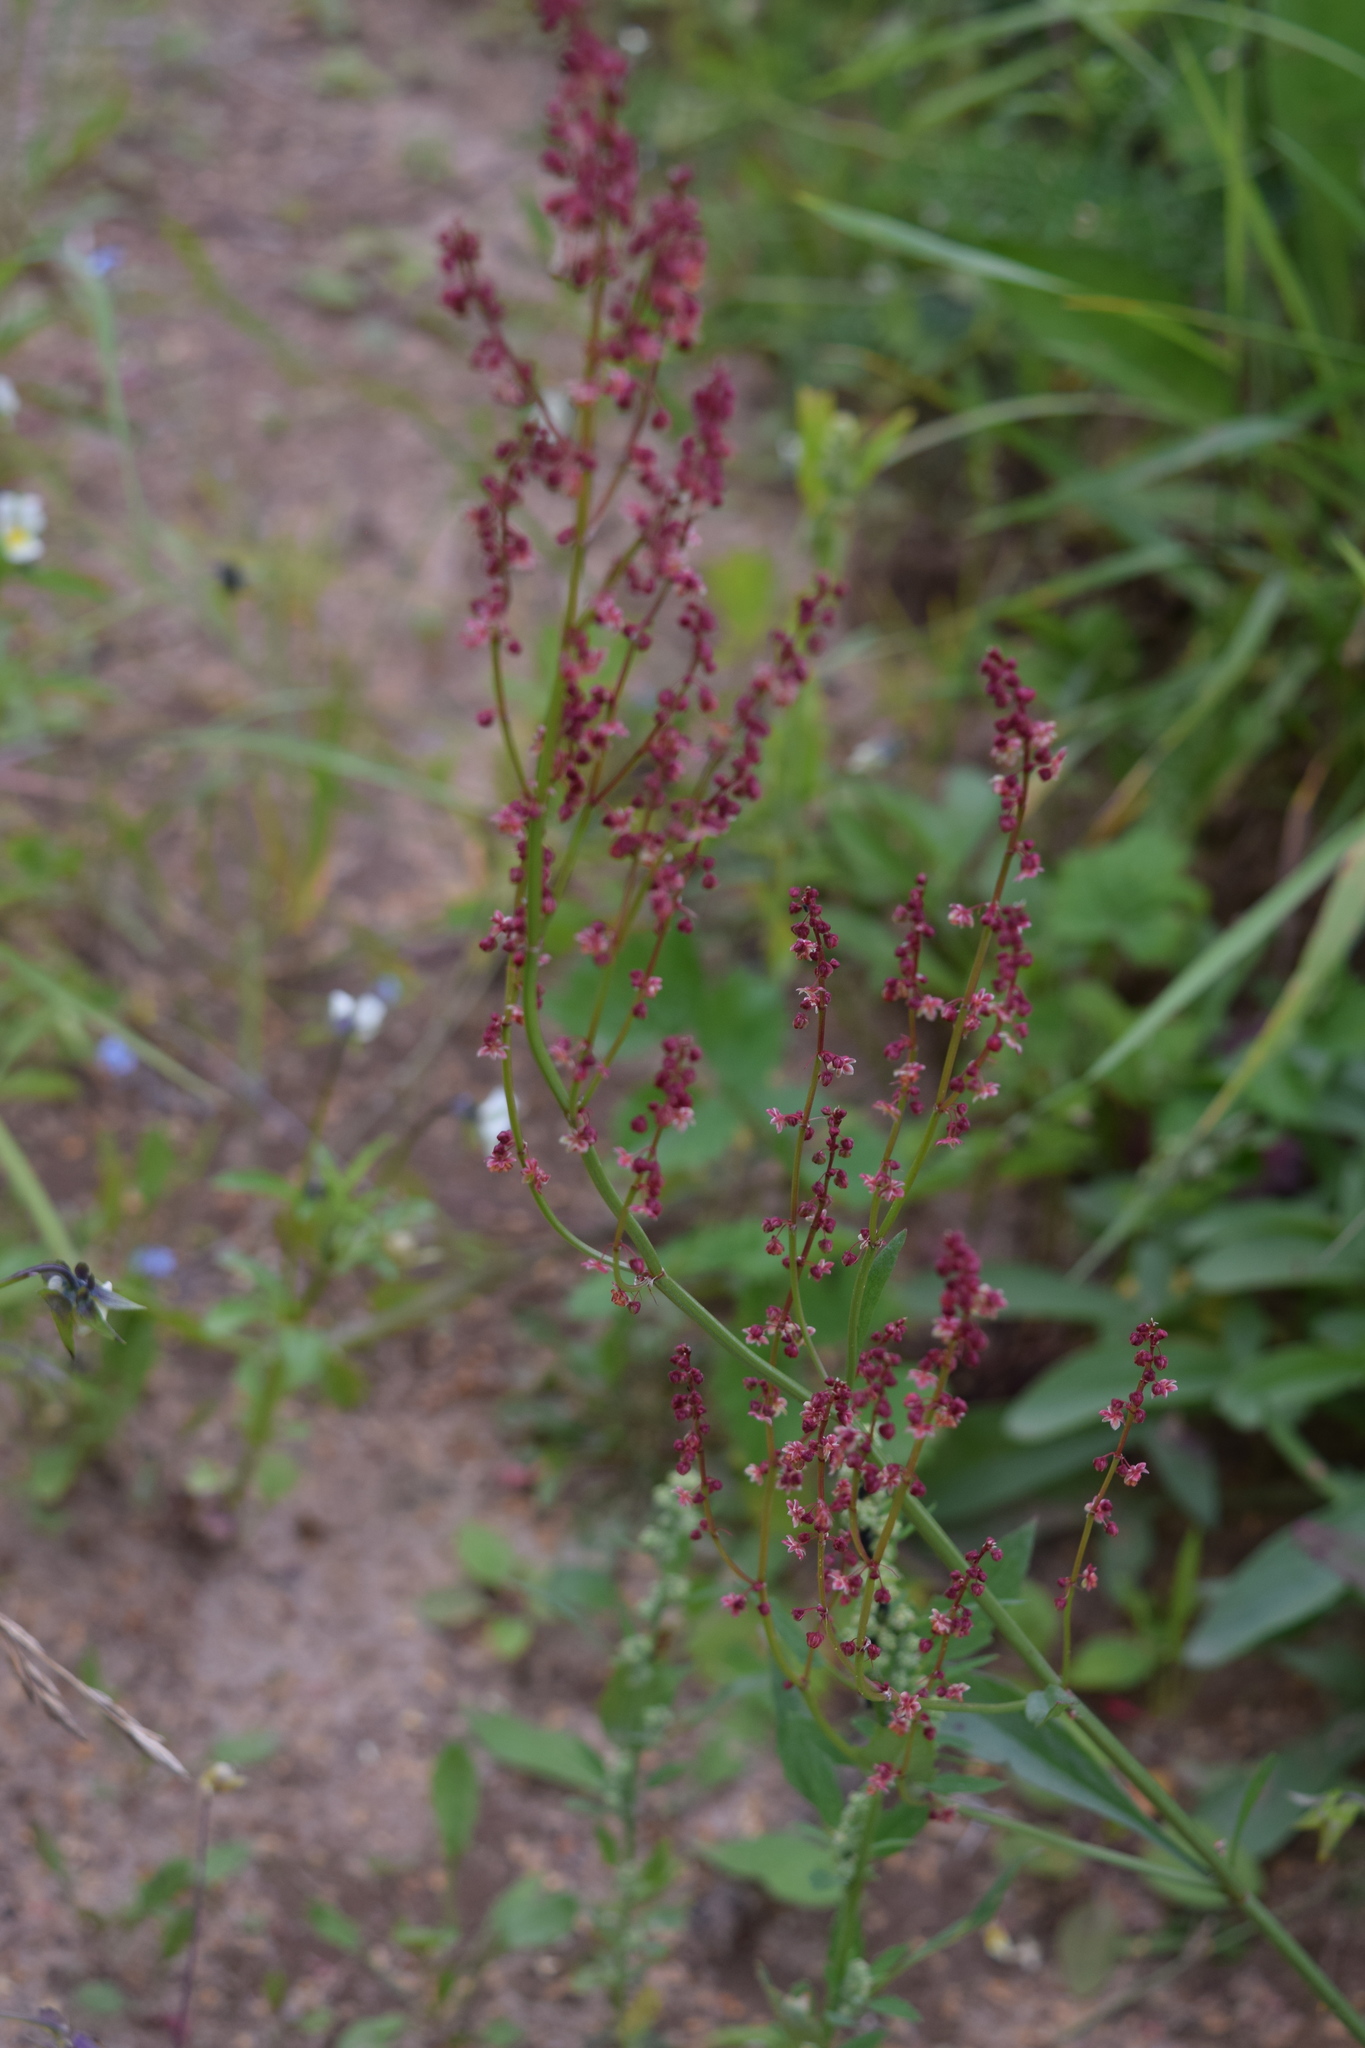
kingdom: Plantae
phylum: Tracheophyta
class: Magnoliopsida
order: Caryophyllales
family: Polygonaceae
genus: Rumex
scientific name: Rumex acetosella
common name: Common sheep sorrel
